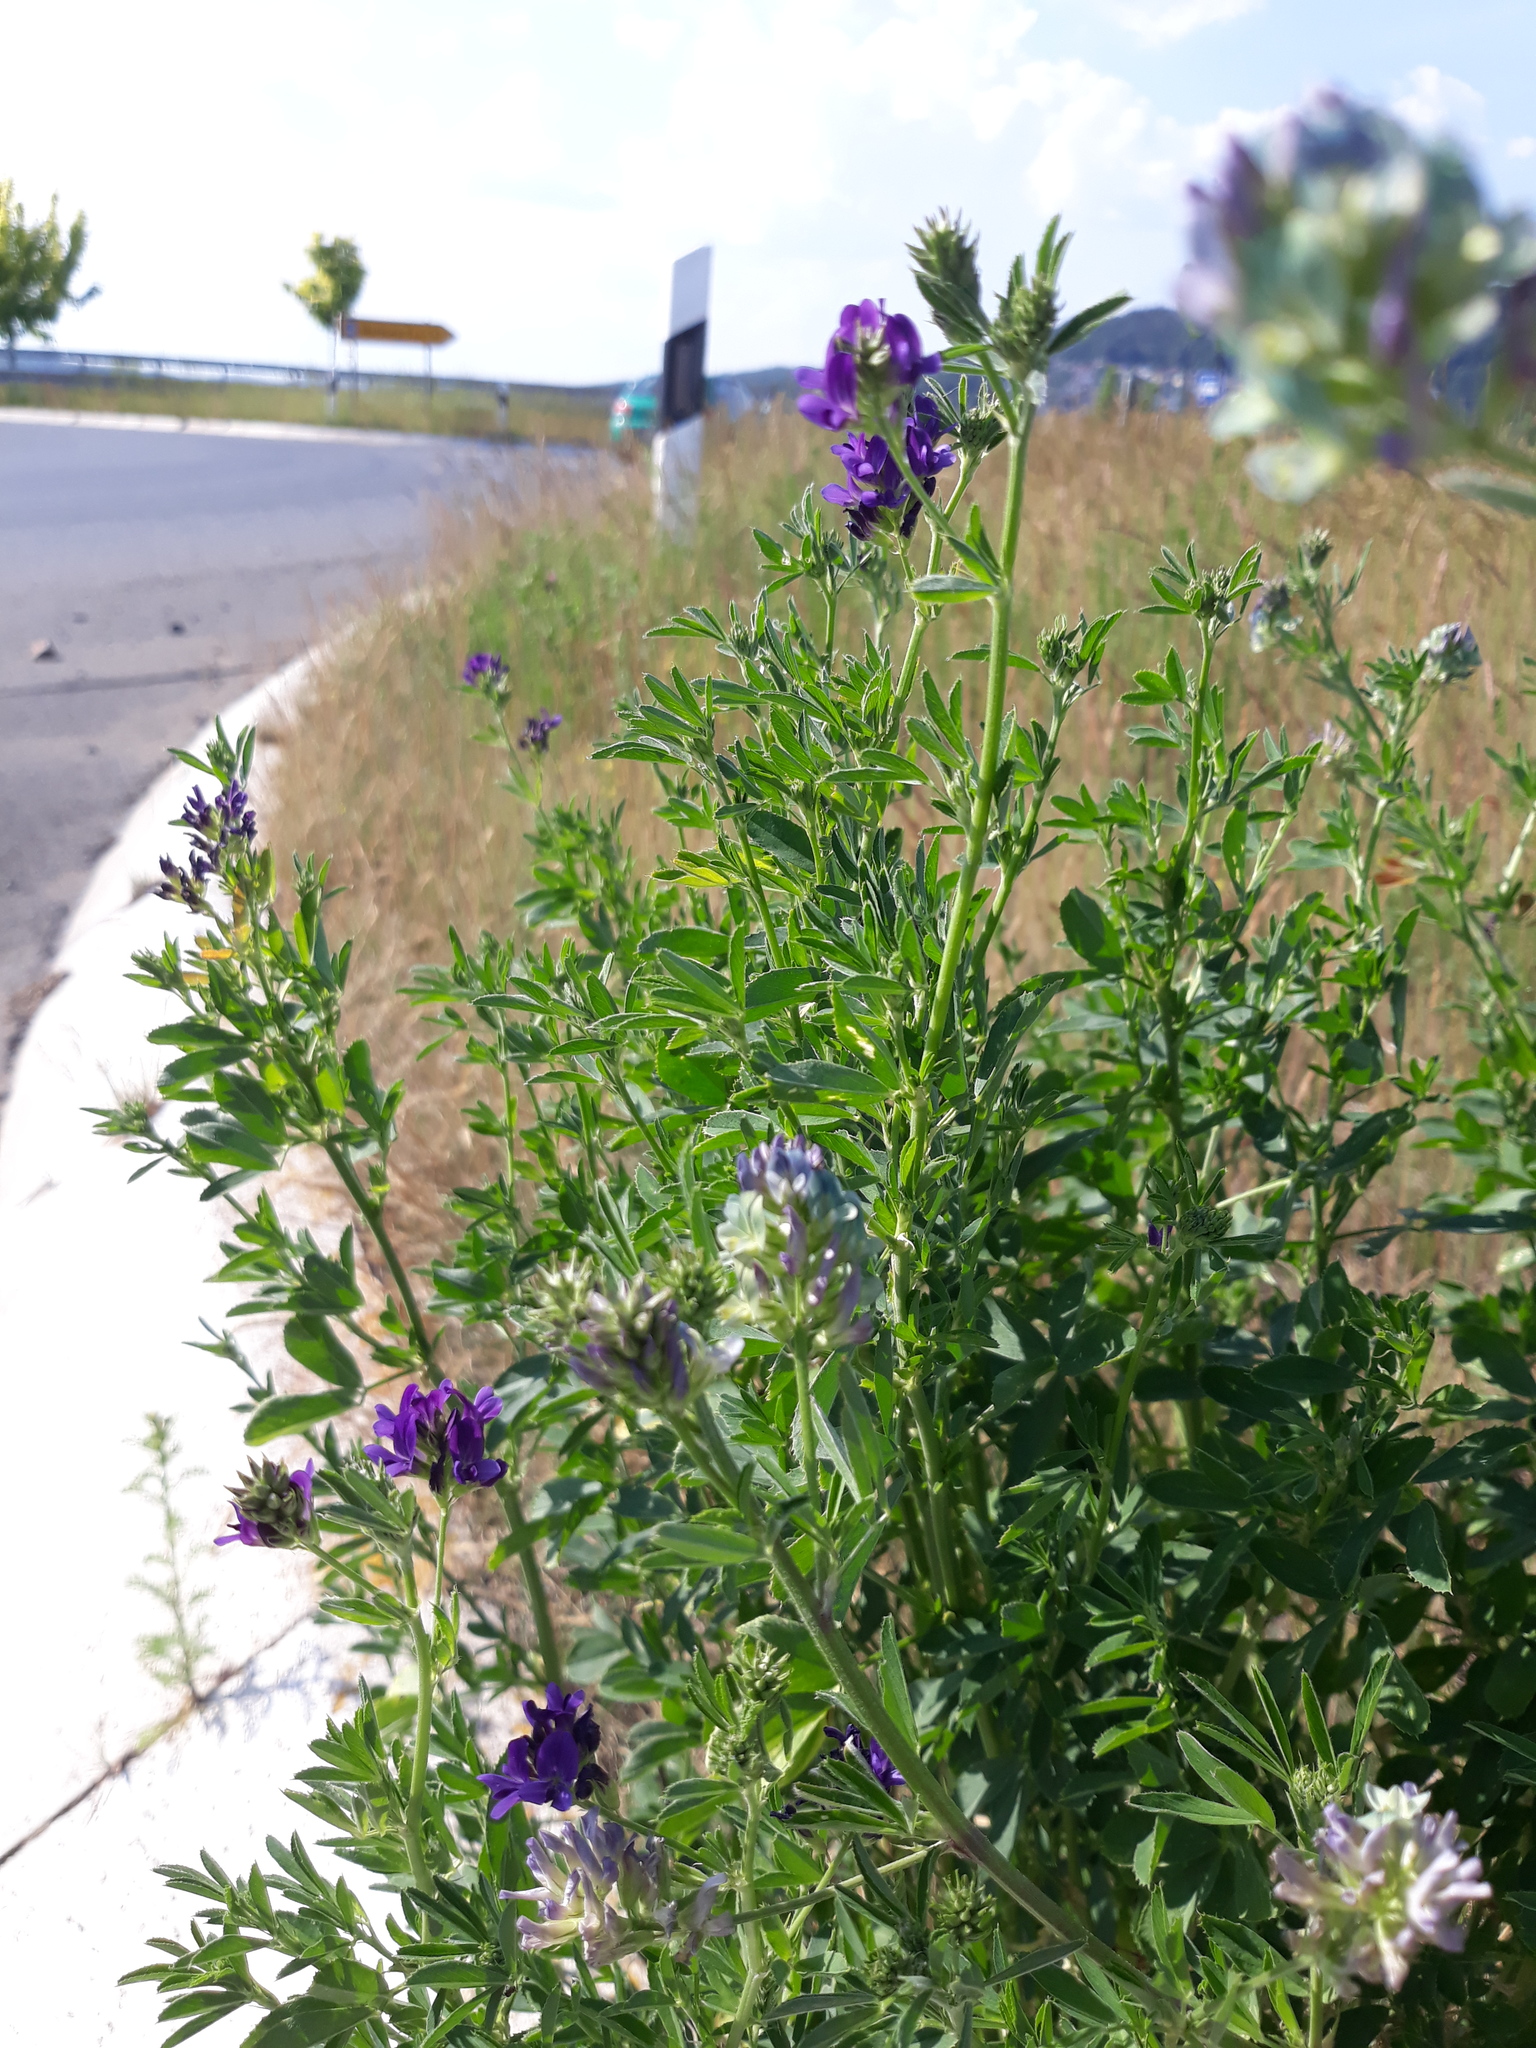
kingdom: Plantae
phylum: Tracheophyta
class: Magnoliopsida
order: Fabales
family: Fabaceae
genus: Medicago
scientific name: Medicago varia
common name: Sand lucerne
